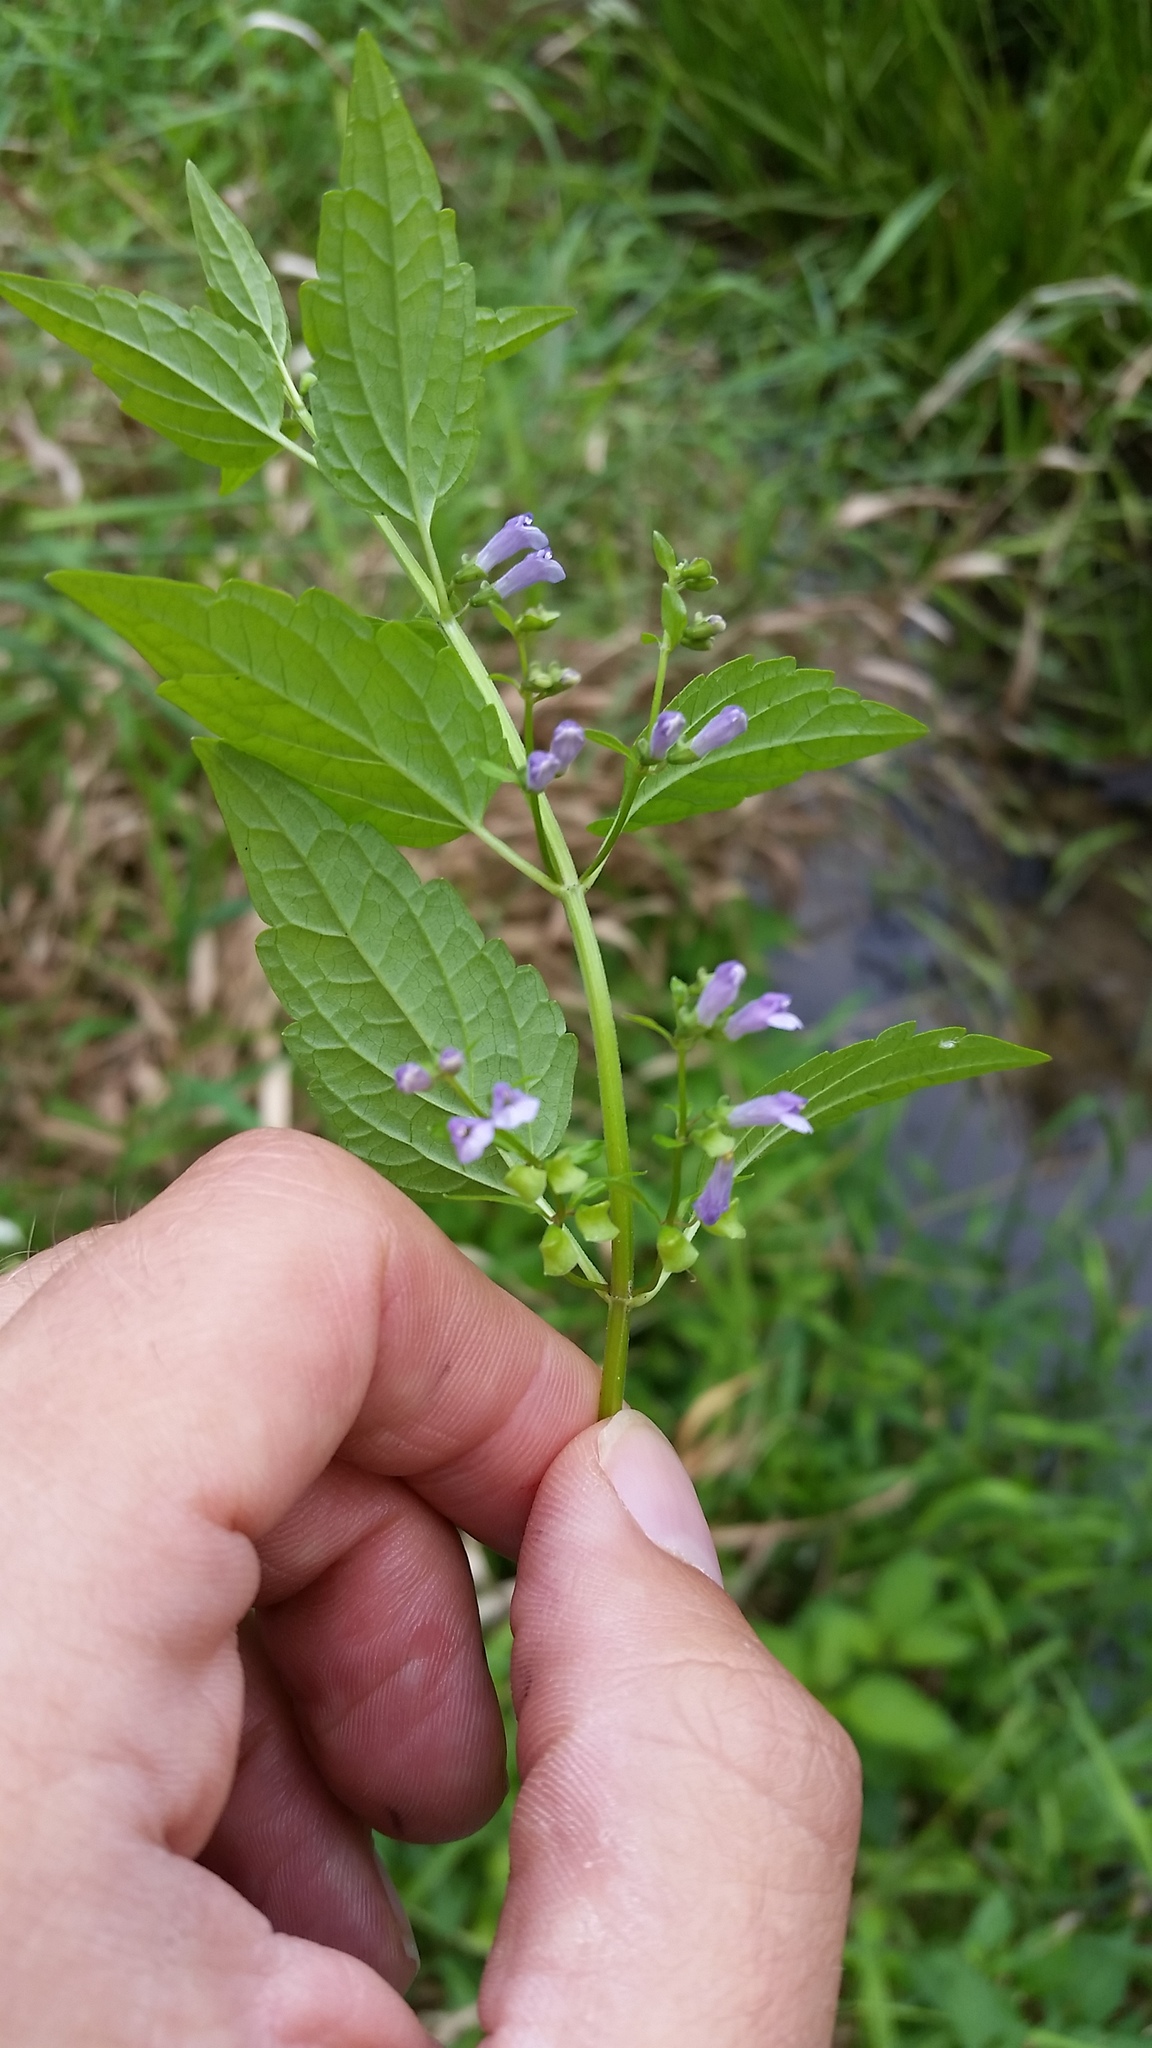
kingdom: Plantae
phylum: Tracheophyta
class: Magnoliopsida
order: Lamiales
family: Lamiaceae
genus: Scutellaria
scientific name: Scutellaria lateriflora
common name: Blue skullcap
